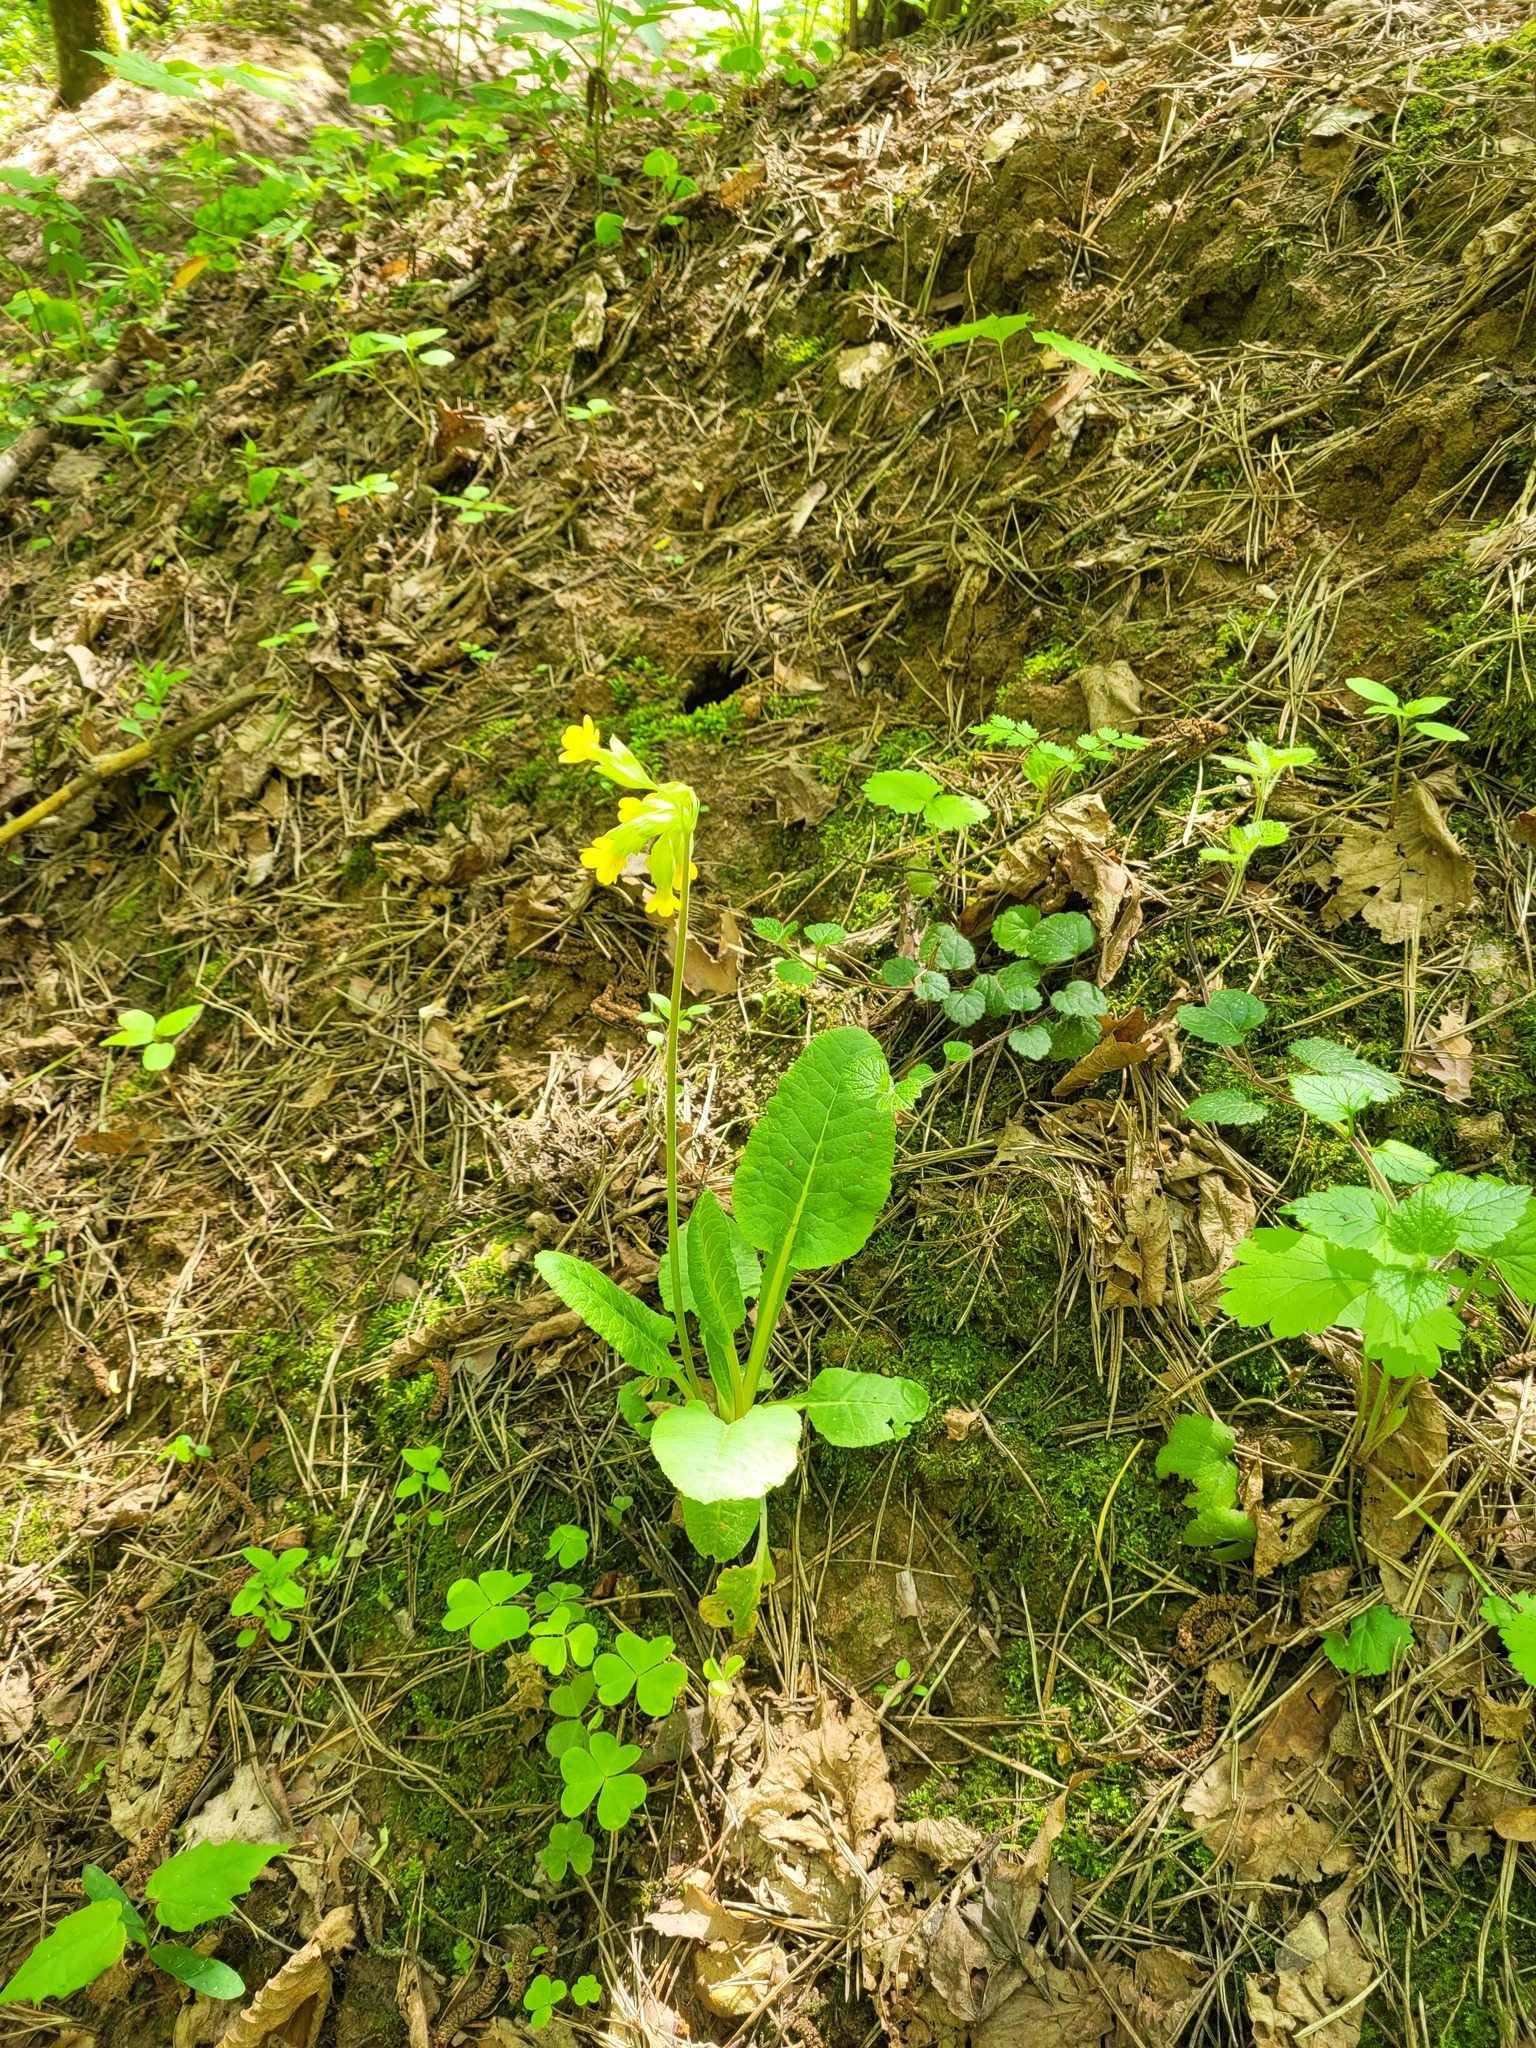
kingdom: Plantae
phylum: Tracheophyta
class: Magnoliopsida
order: Ericales
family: Primulaceae
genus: Primula
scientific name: Primula veris
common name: Cowslip
